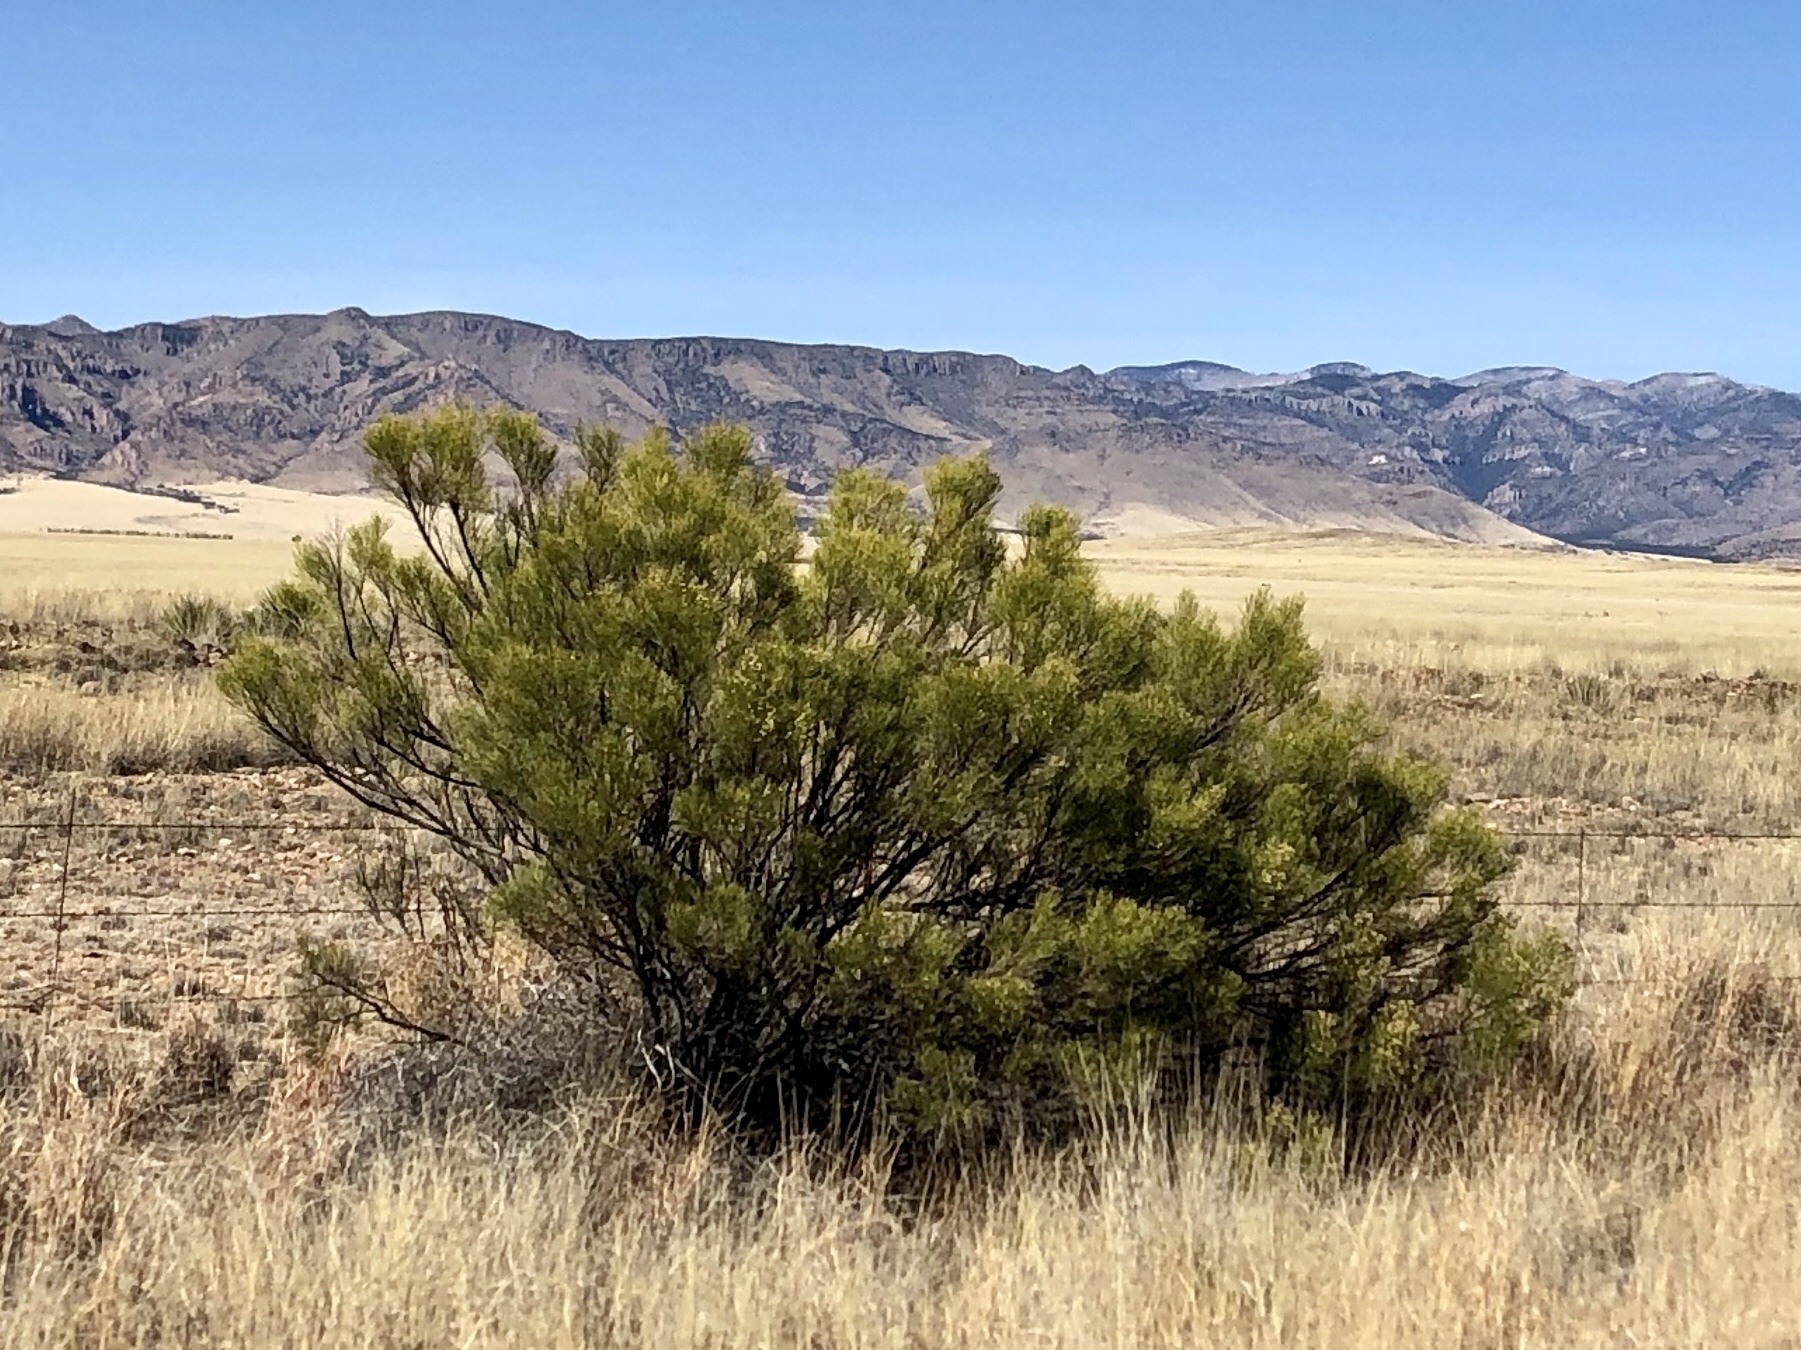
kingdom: Plantae
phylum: Tracheophyta
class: Magnoliopsida
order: Asterales
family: Asteraceae
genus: Baccharis
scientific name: Baccharis sarothroides
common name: Desert-broom
